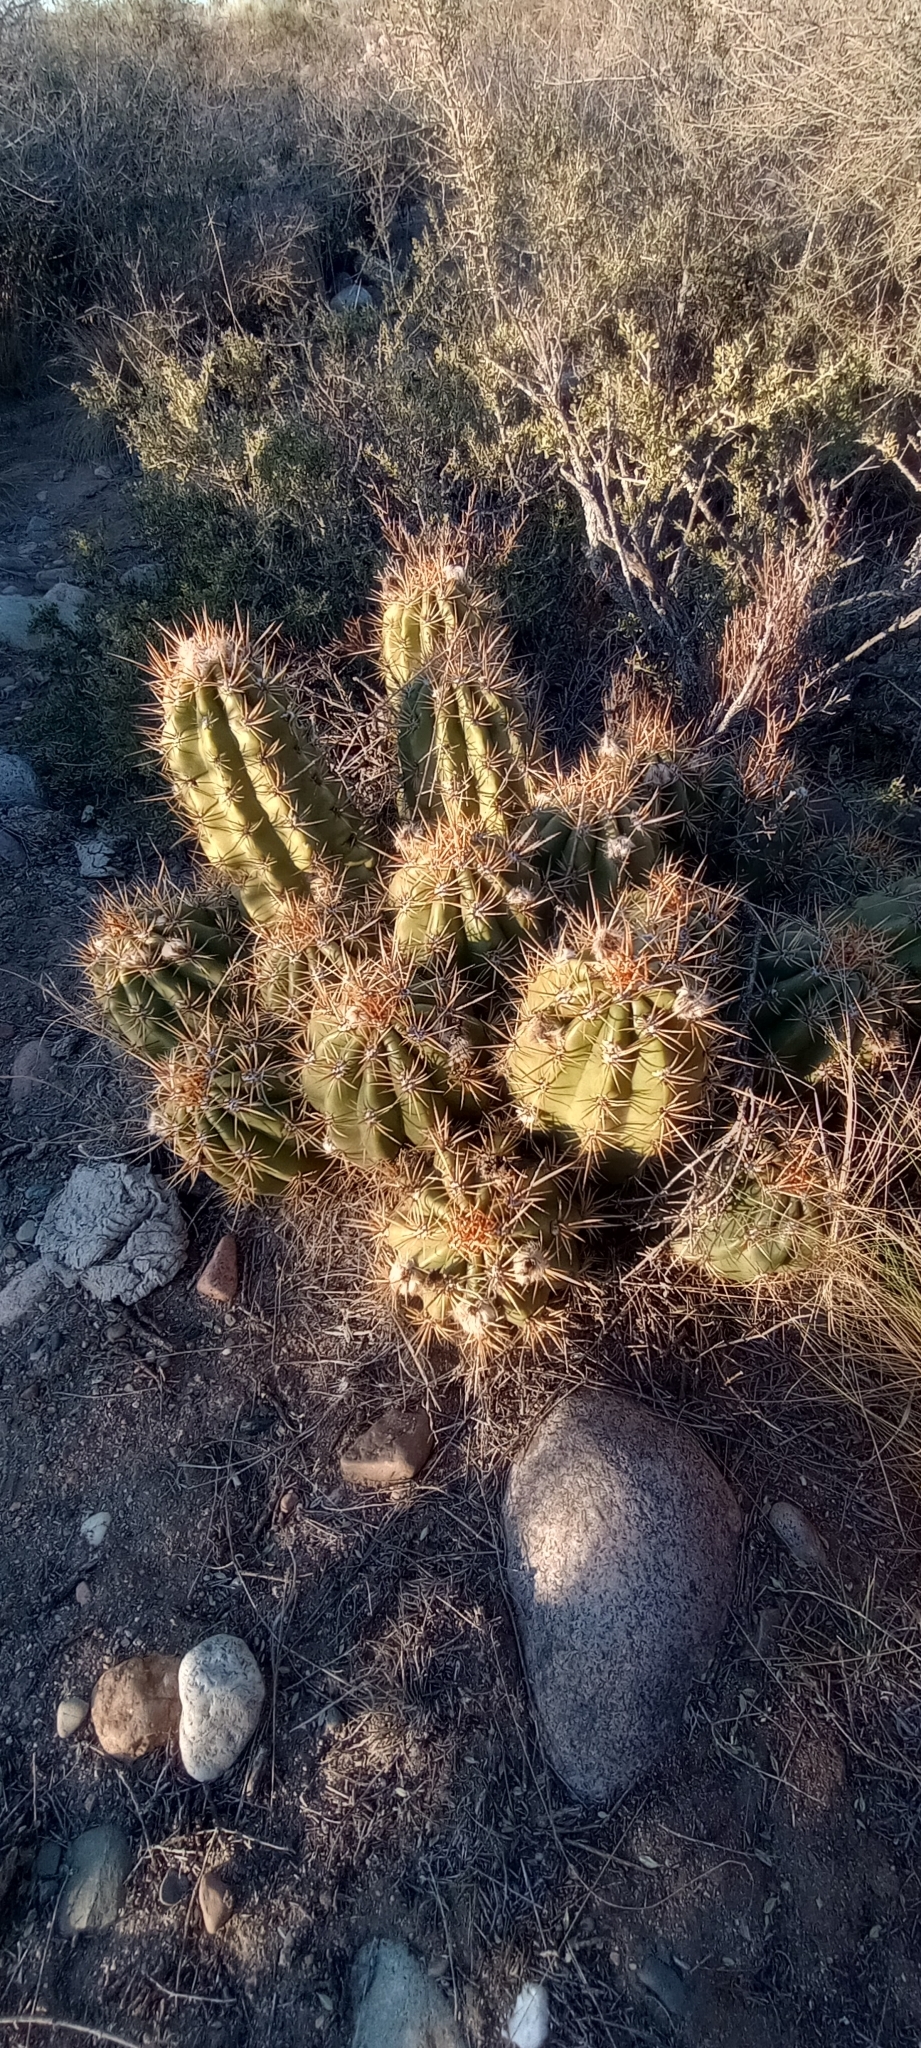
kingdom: Plantae
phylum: Tracheophyta
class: Magnoliopsida
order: Caryophyllales
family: Cactaceae
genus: Soehrensia
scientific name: Soehrensia candicans
